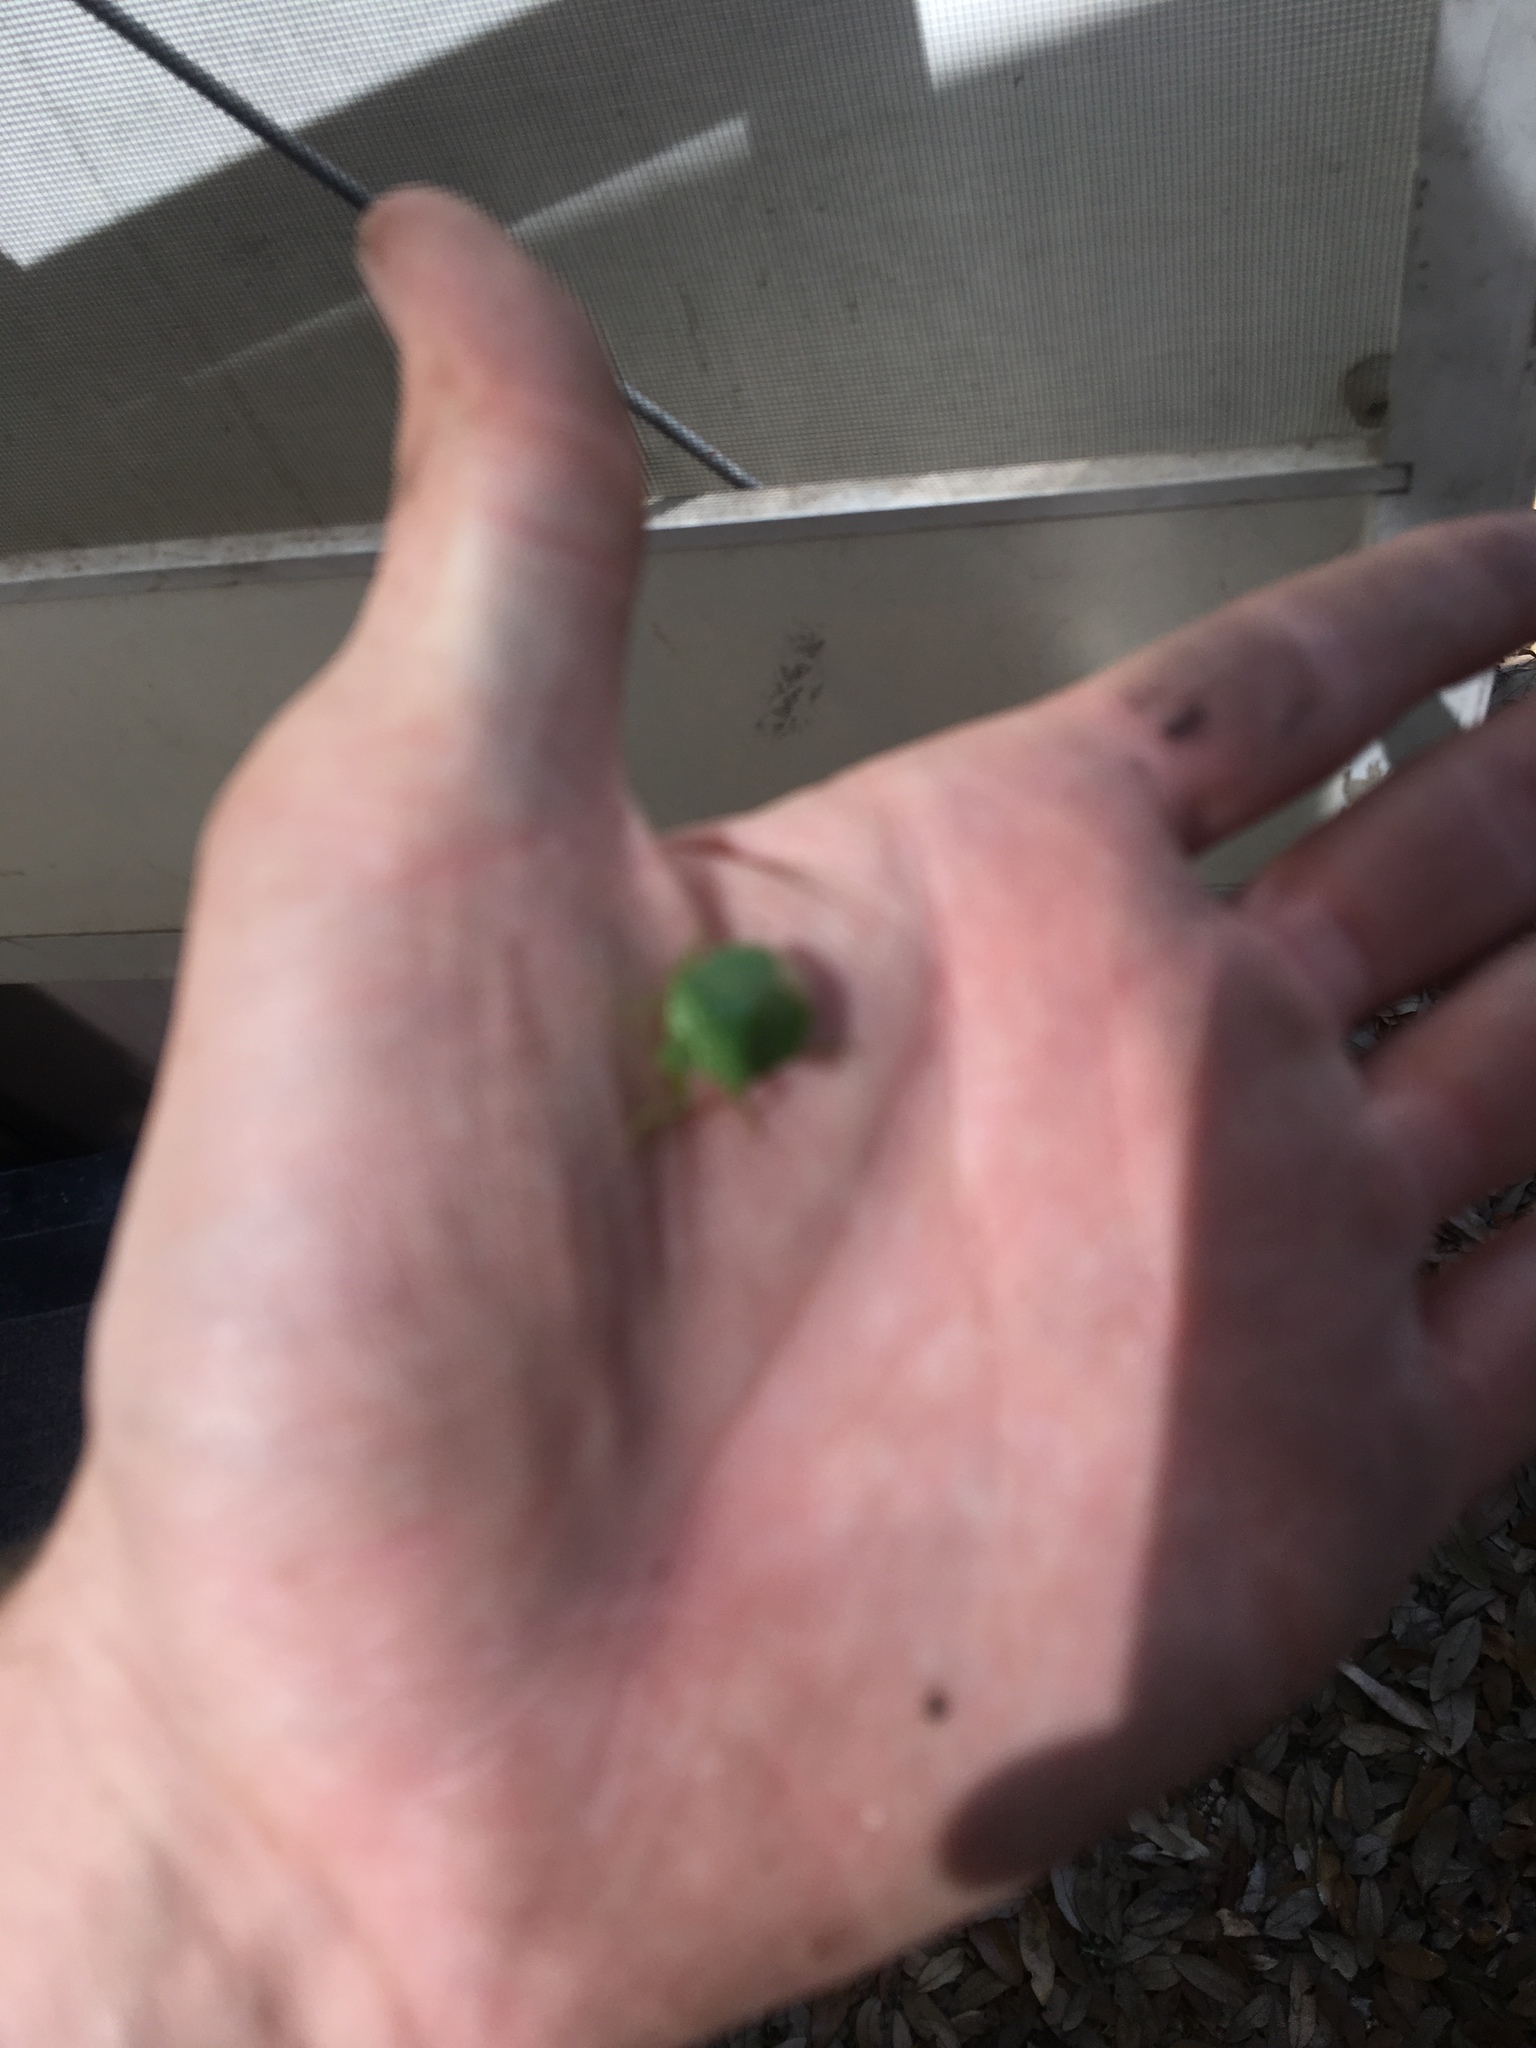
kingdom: Animalia
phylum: Arthropoda
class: Insecta
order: Hemiptera
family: Pentatomidae
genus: Chinavia
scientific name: Chinavia hilaris
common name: Green stink bug
